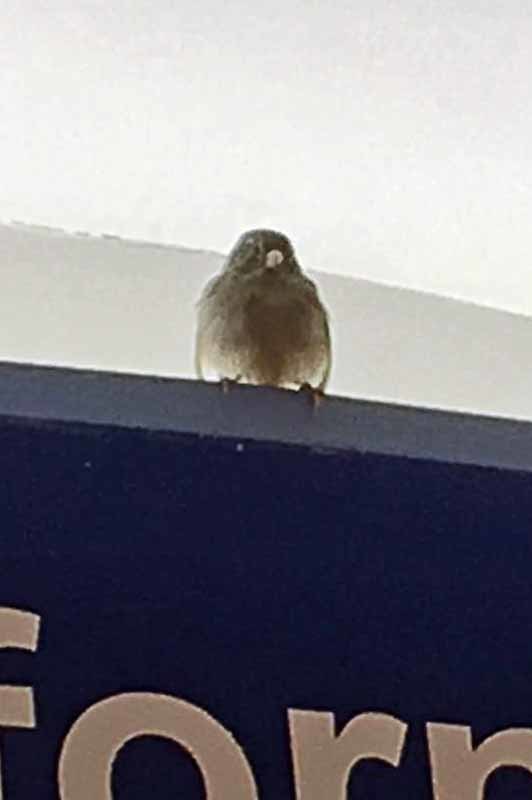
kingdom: Animalia
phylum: Chordata
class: Aves
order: Passeriformes
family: Passeridae
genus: Passer
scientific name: Passer domesticus
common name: House sparrow
